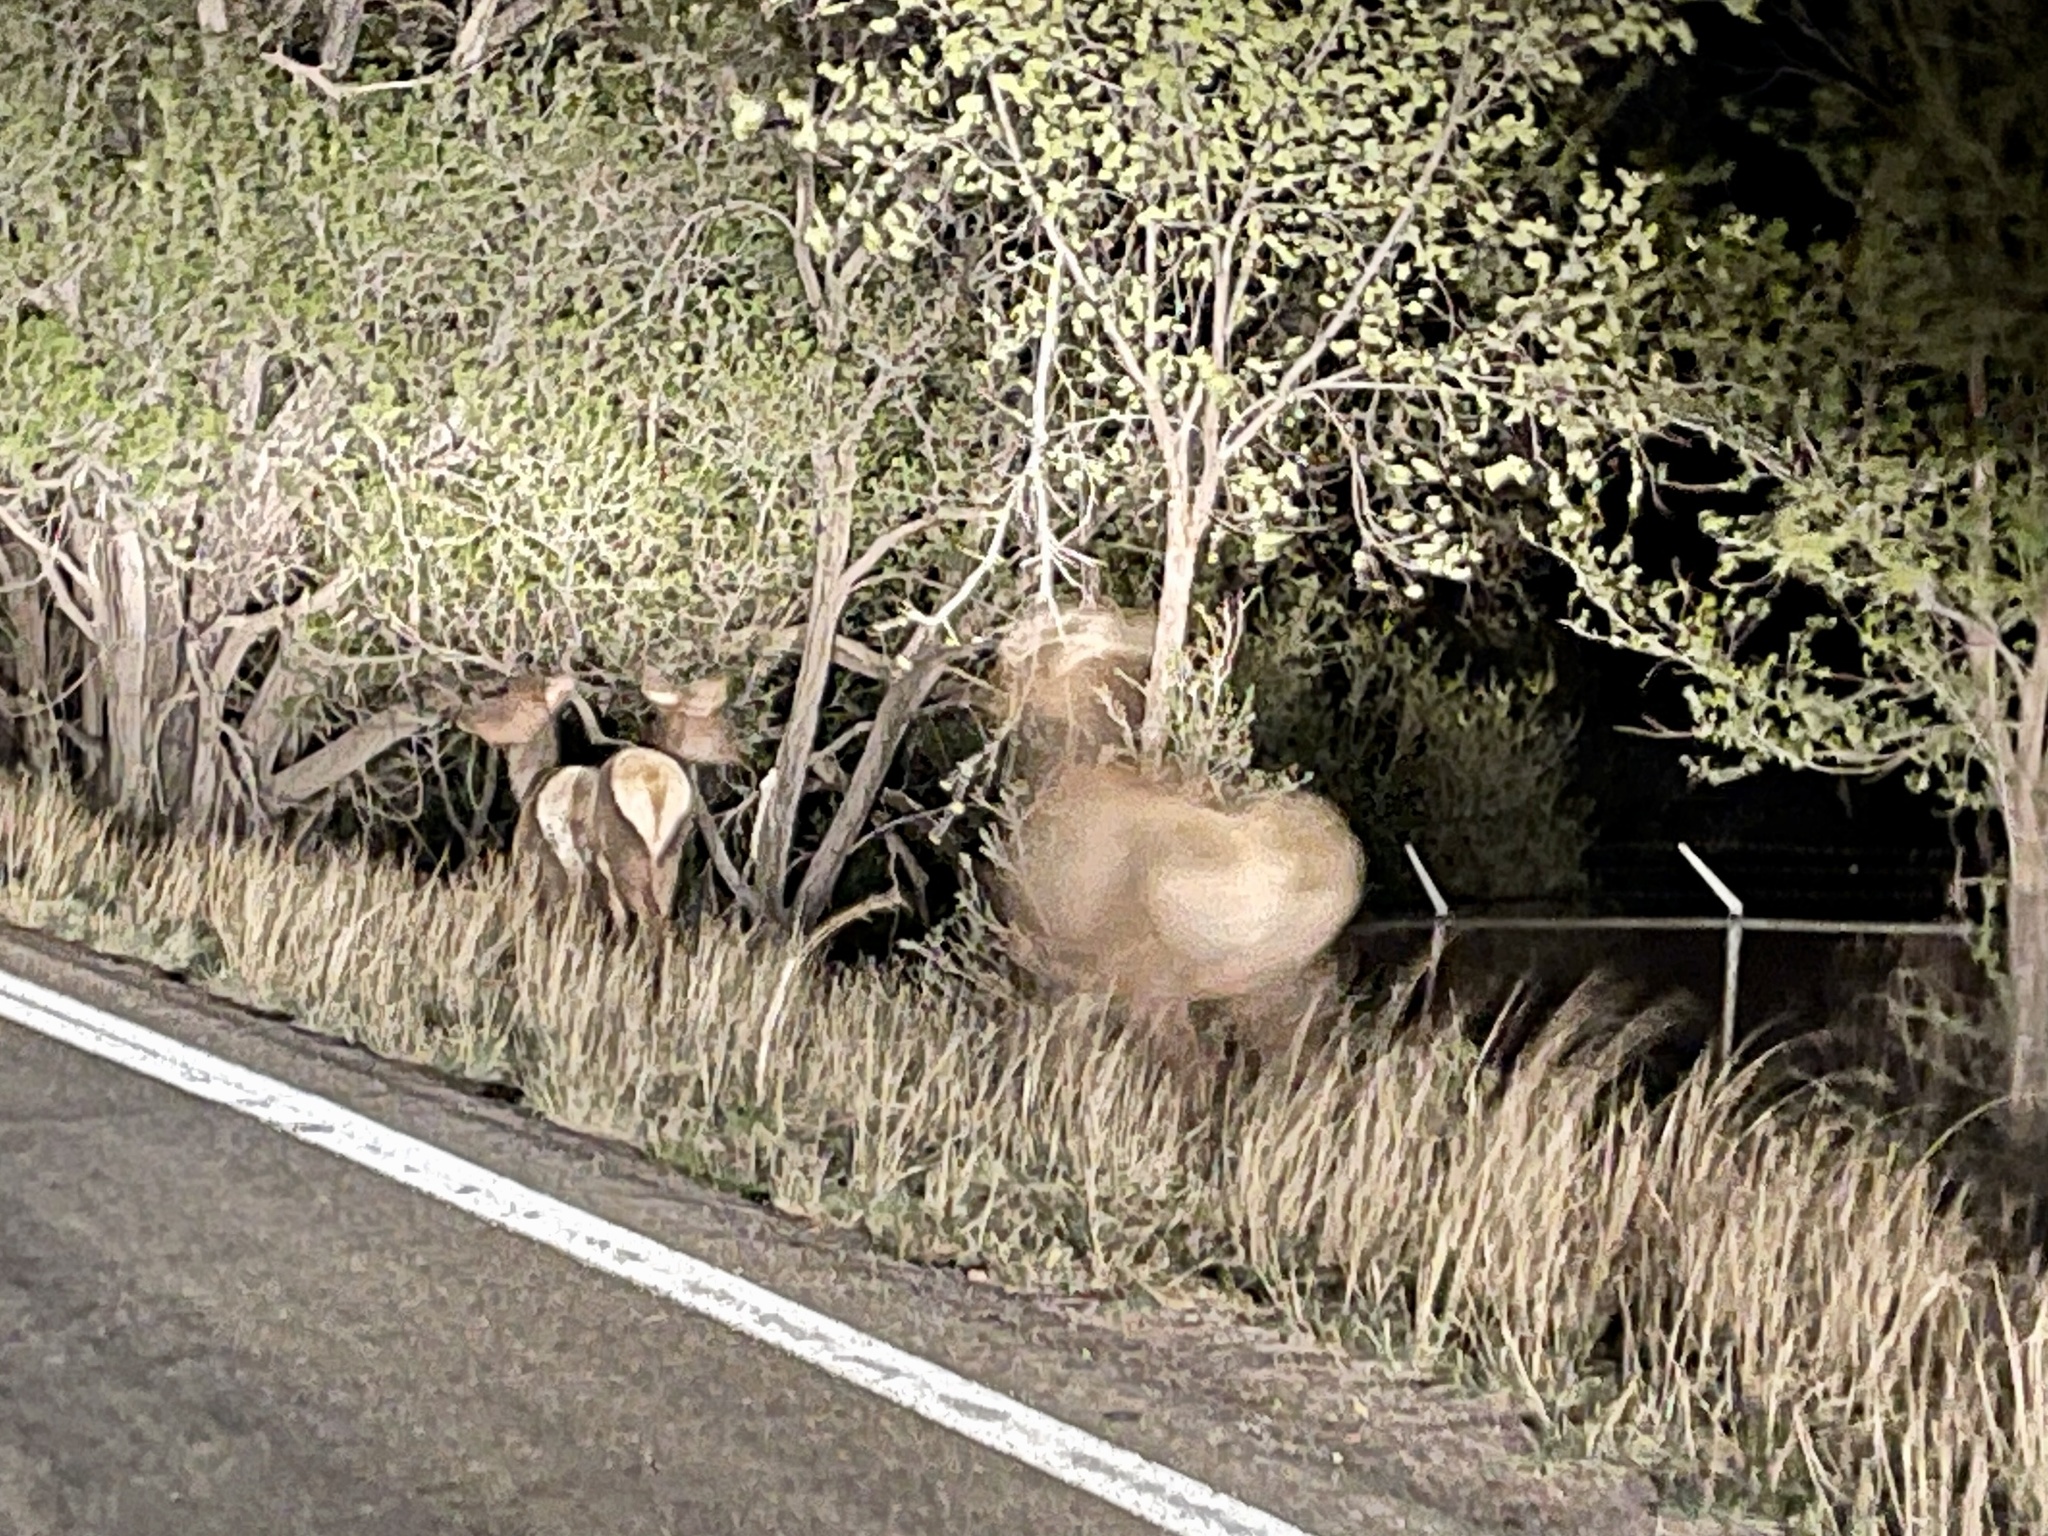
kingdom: Animalia
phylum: Chordata
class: Mammalia
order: Artiodactyla
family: Cervidae
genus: Cervus
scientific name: Cervus elaphus
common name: Red deer
